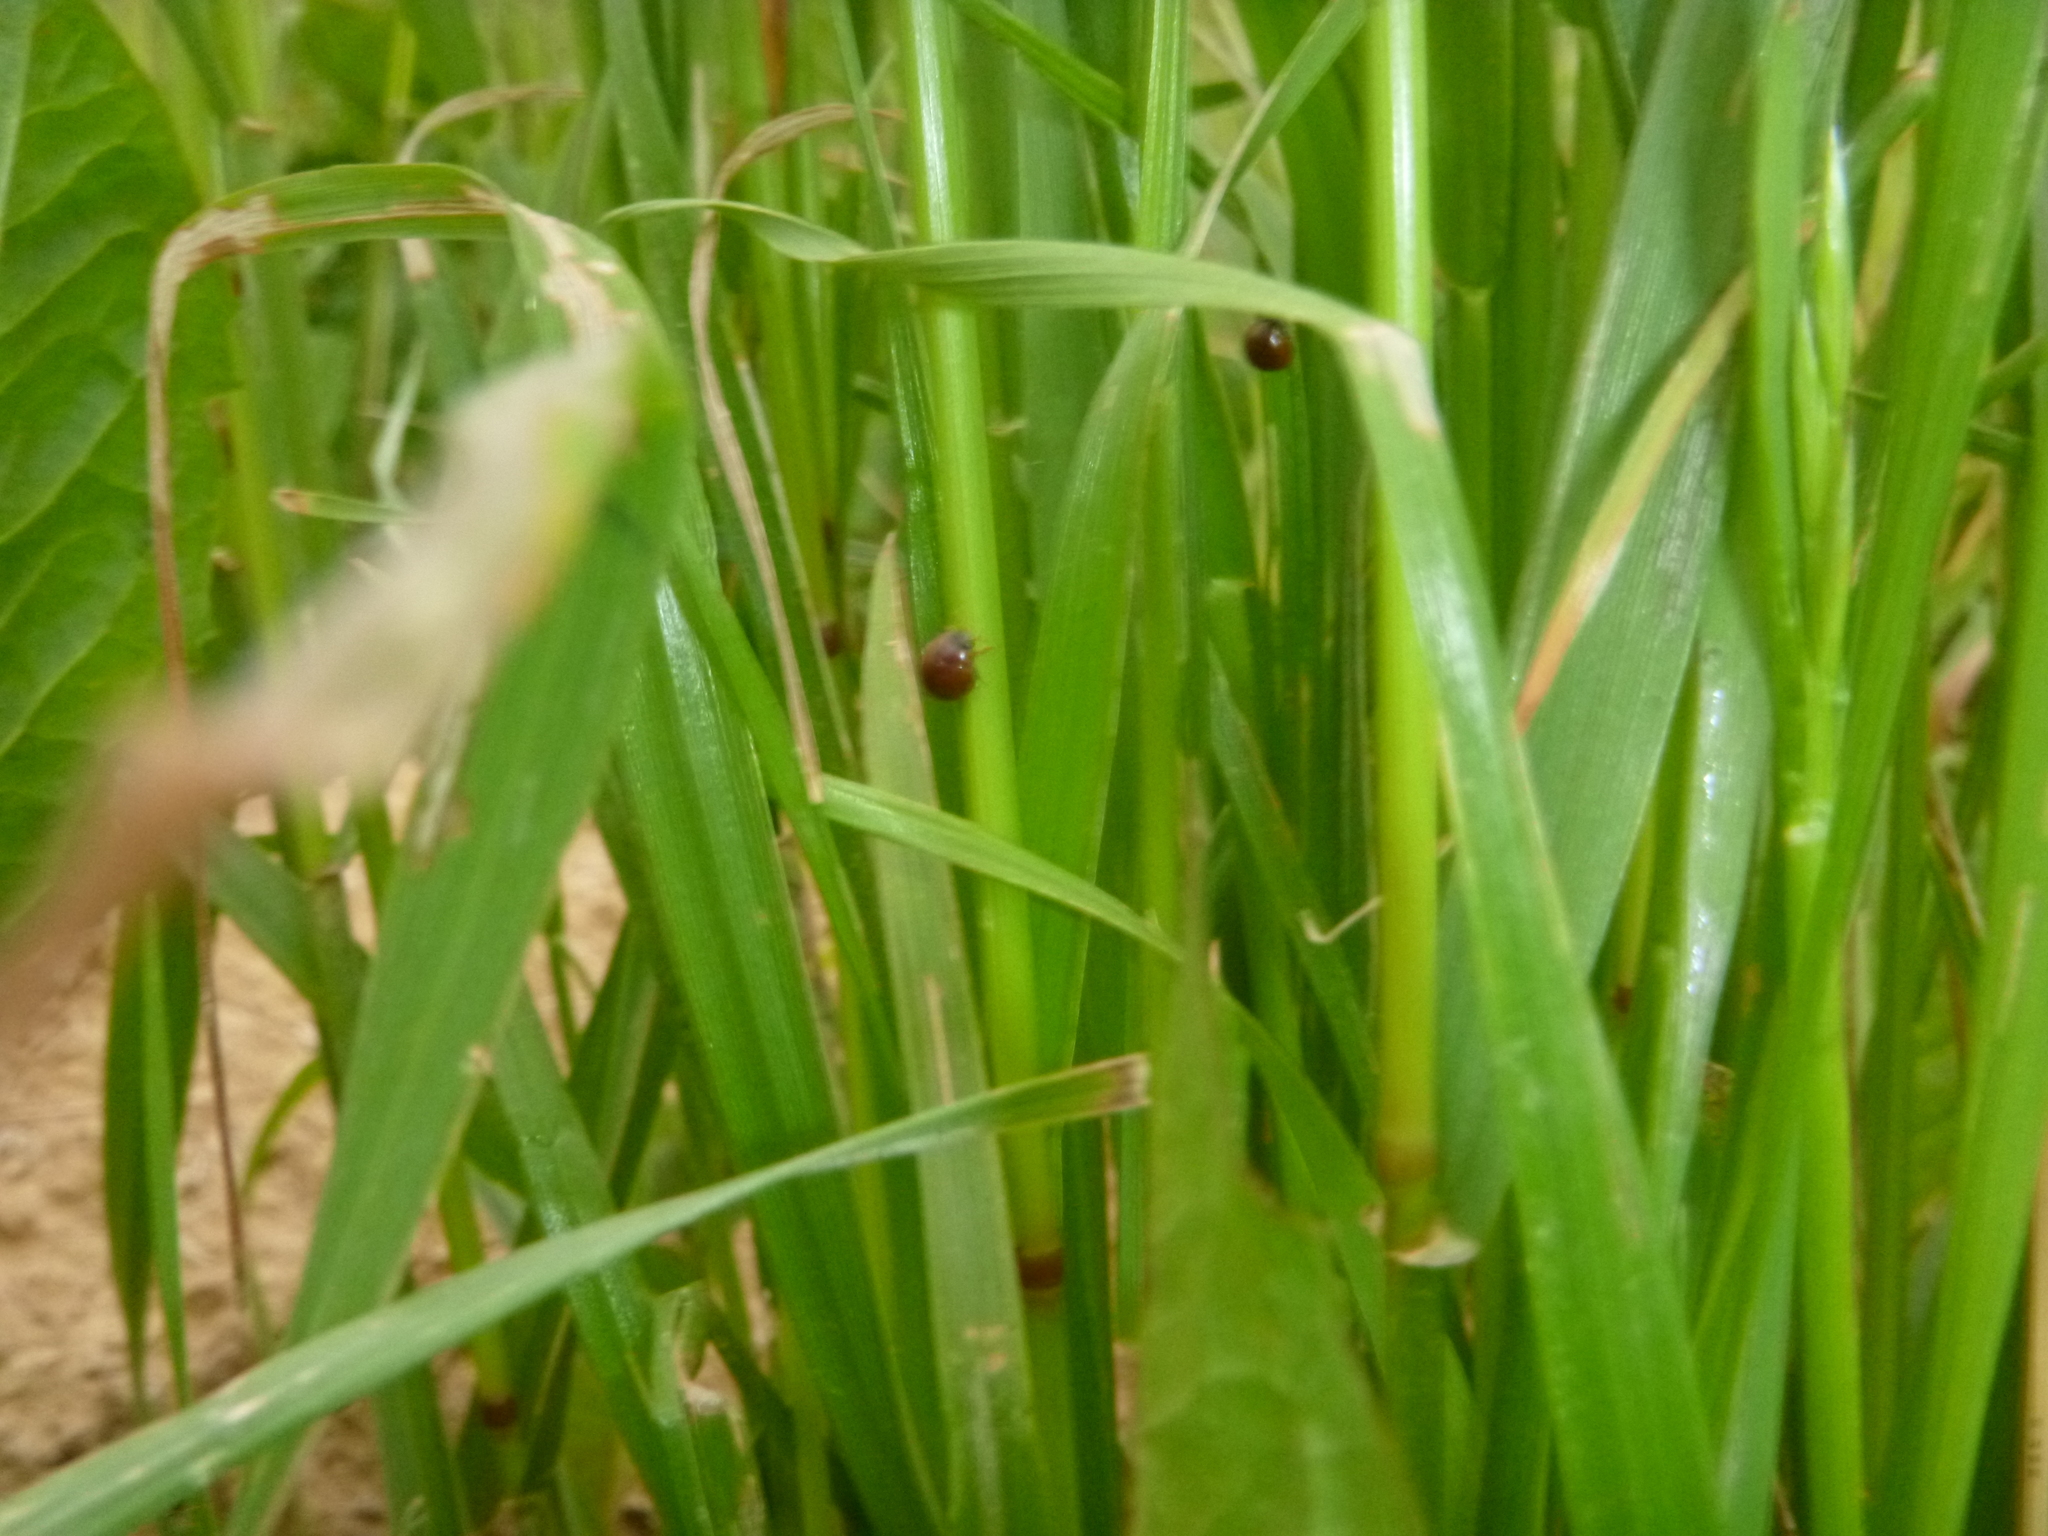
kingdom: Animalia
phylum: Arthropoda
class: Insecta
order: Coleoptera
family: Coccinellidae
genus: Cynegetis
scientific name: Cynegetis impunctata
